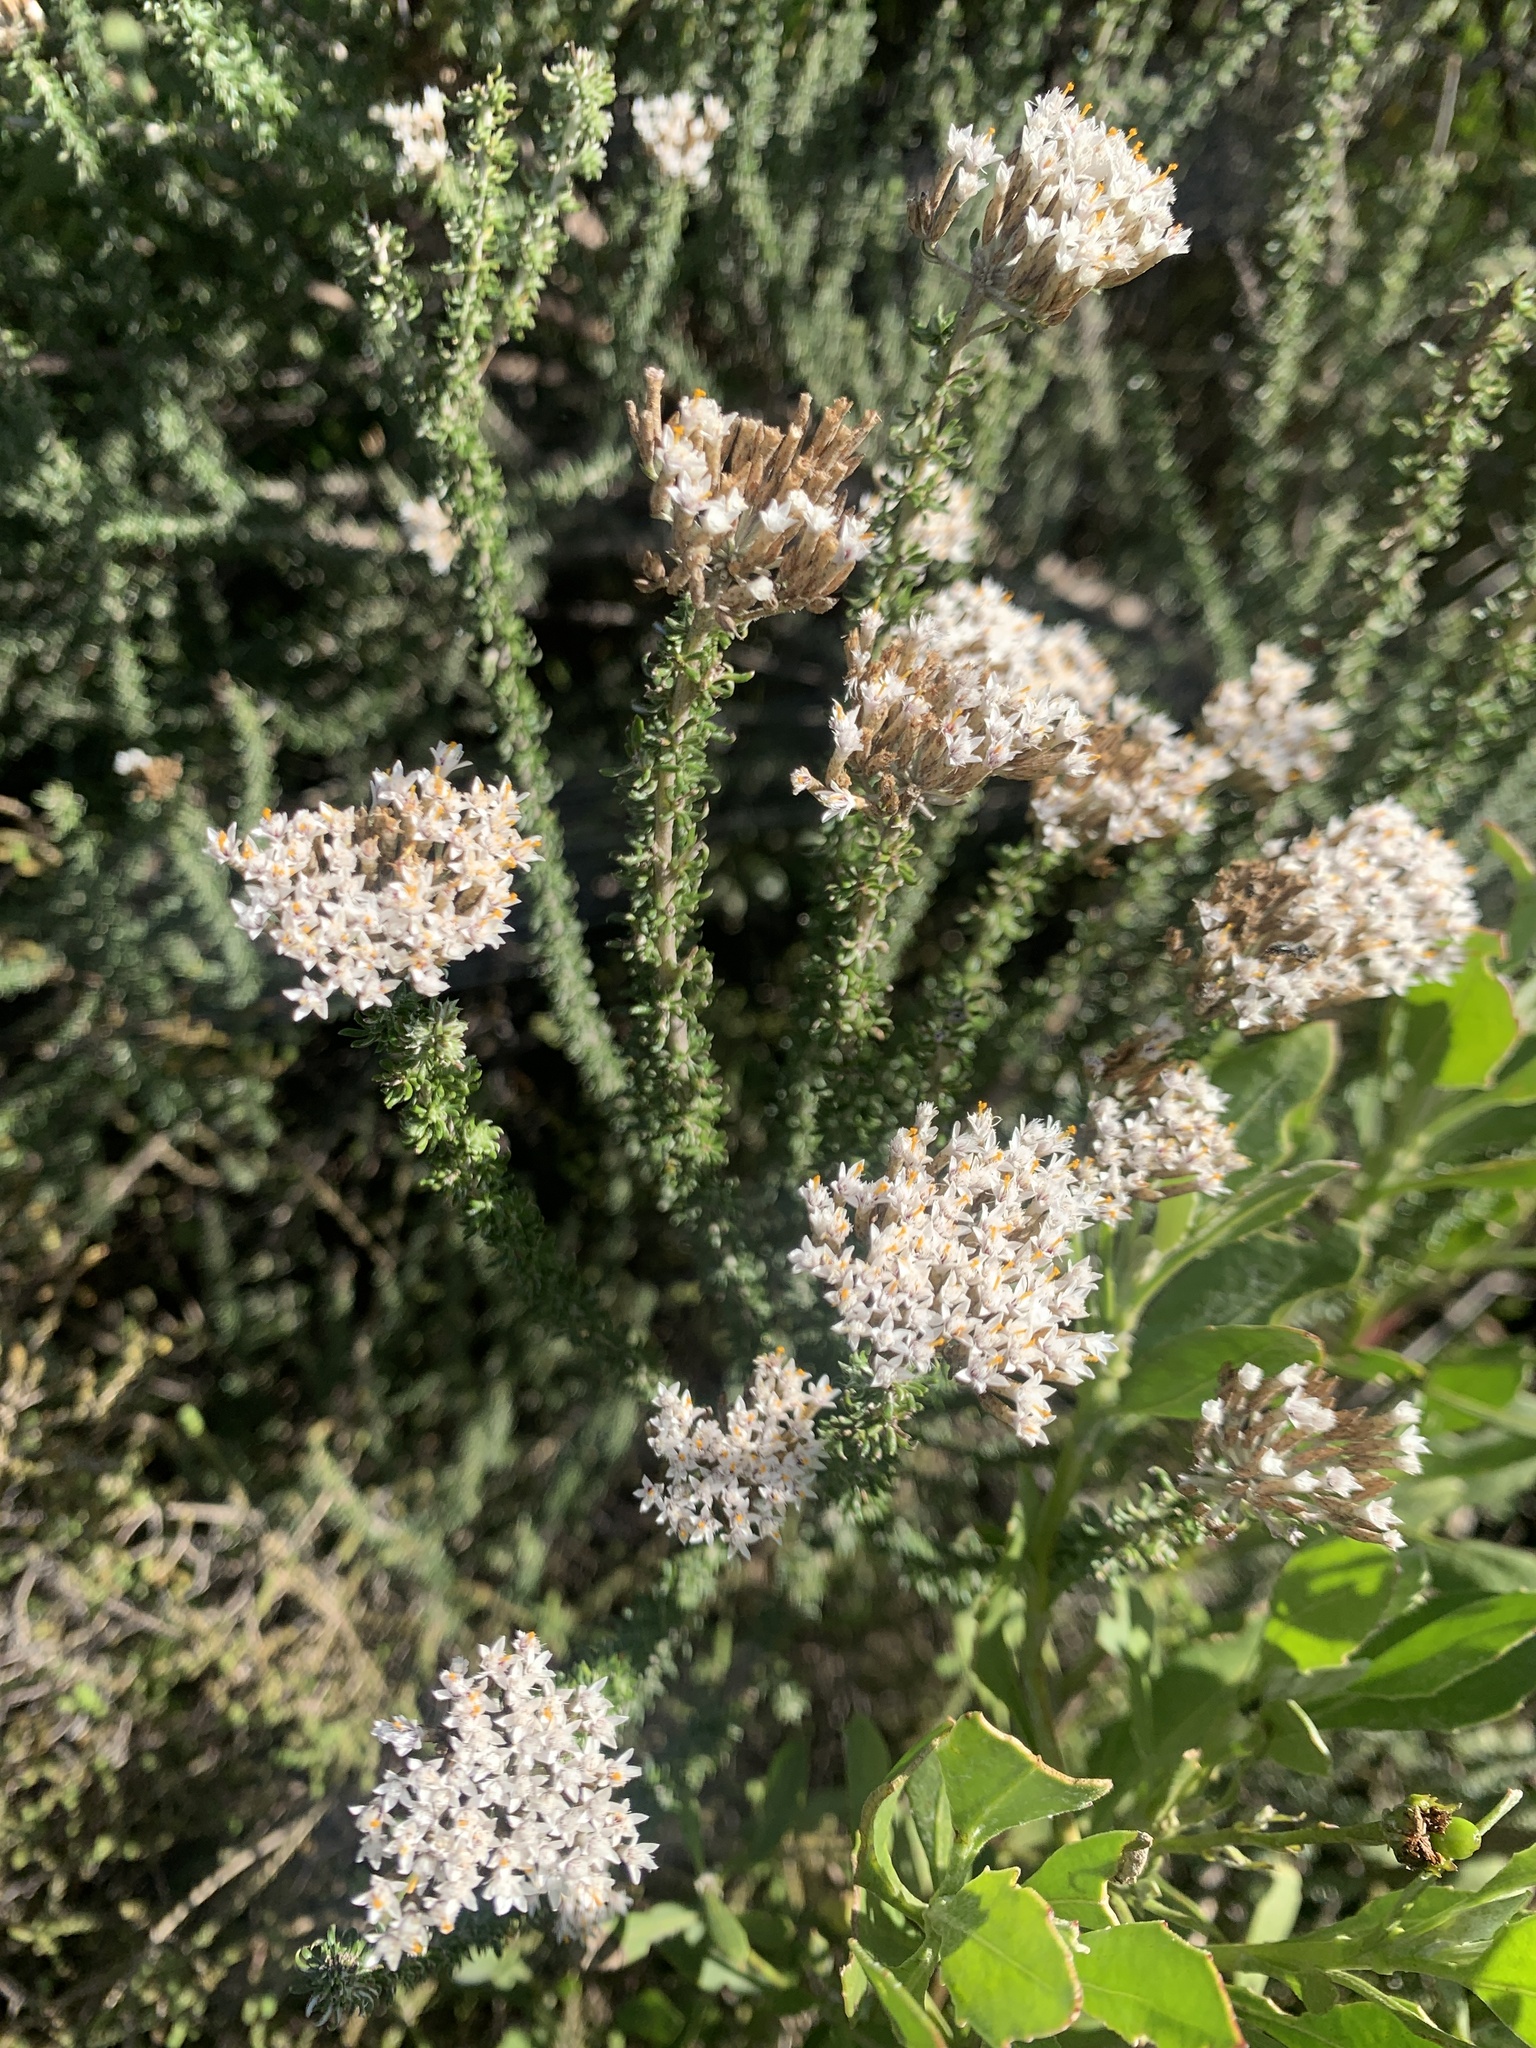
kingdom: Plantae
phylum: Tracheophyta
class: Magnoliopsida
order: Asterales
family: Asteraceae
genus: Metalasia
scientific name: Metalasia muricata
